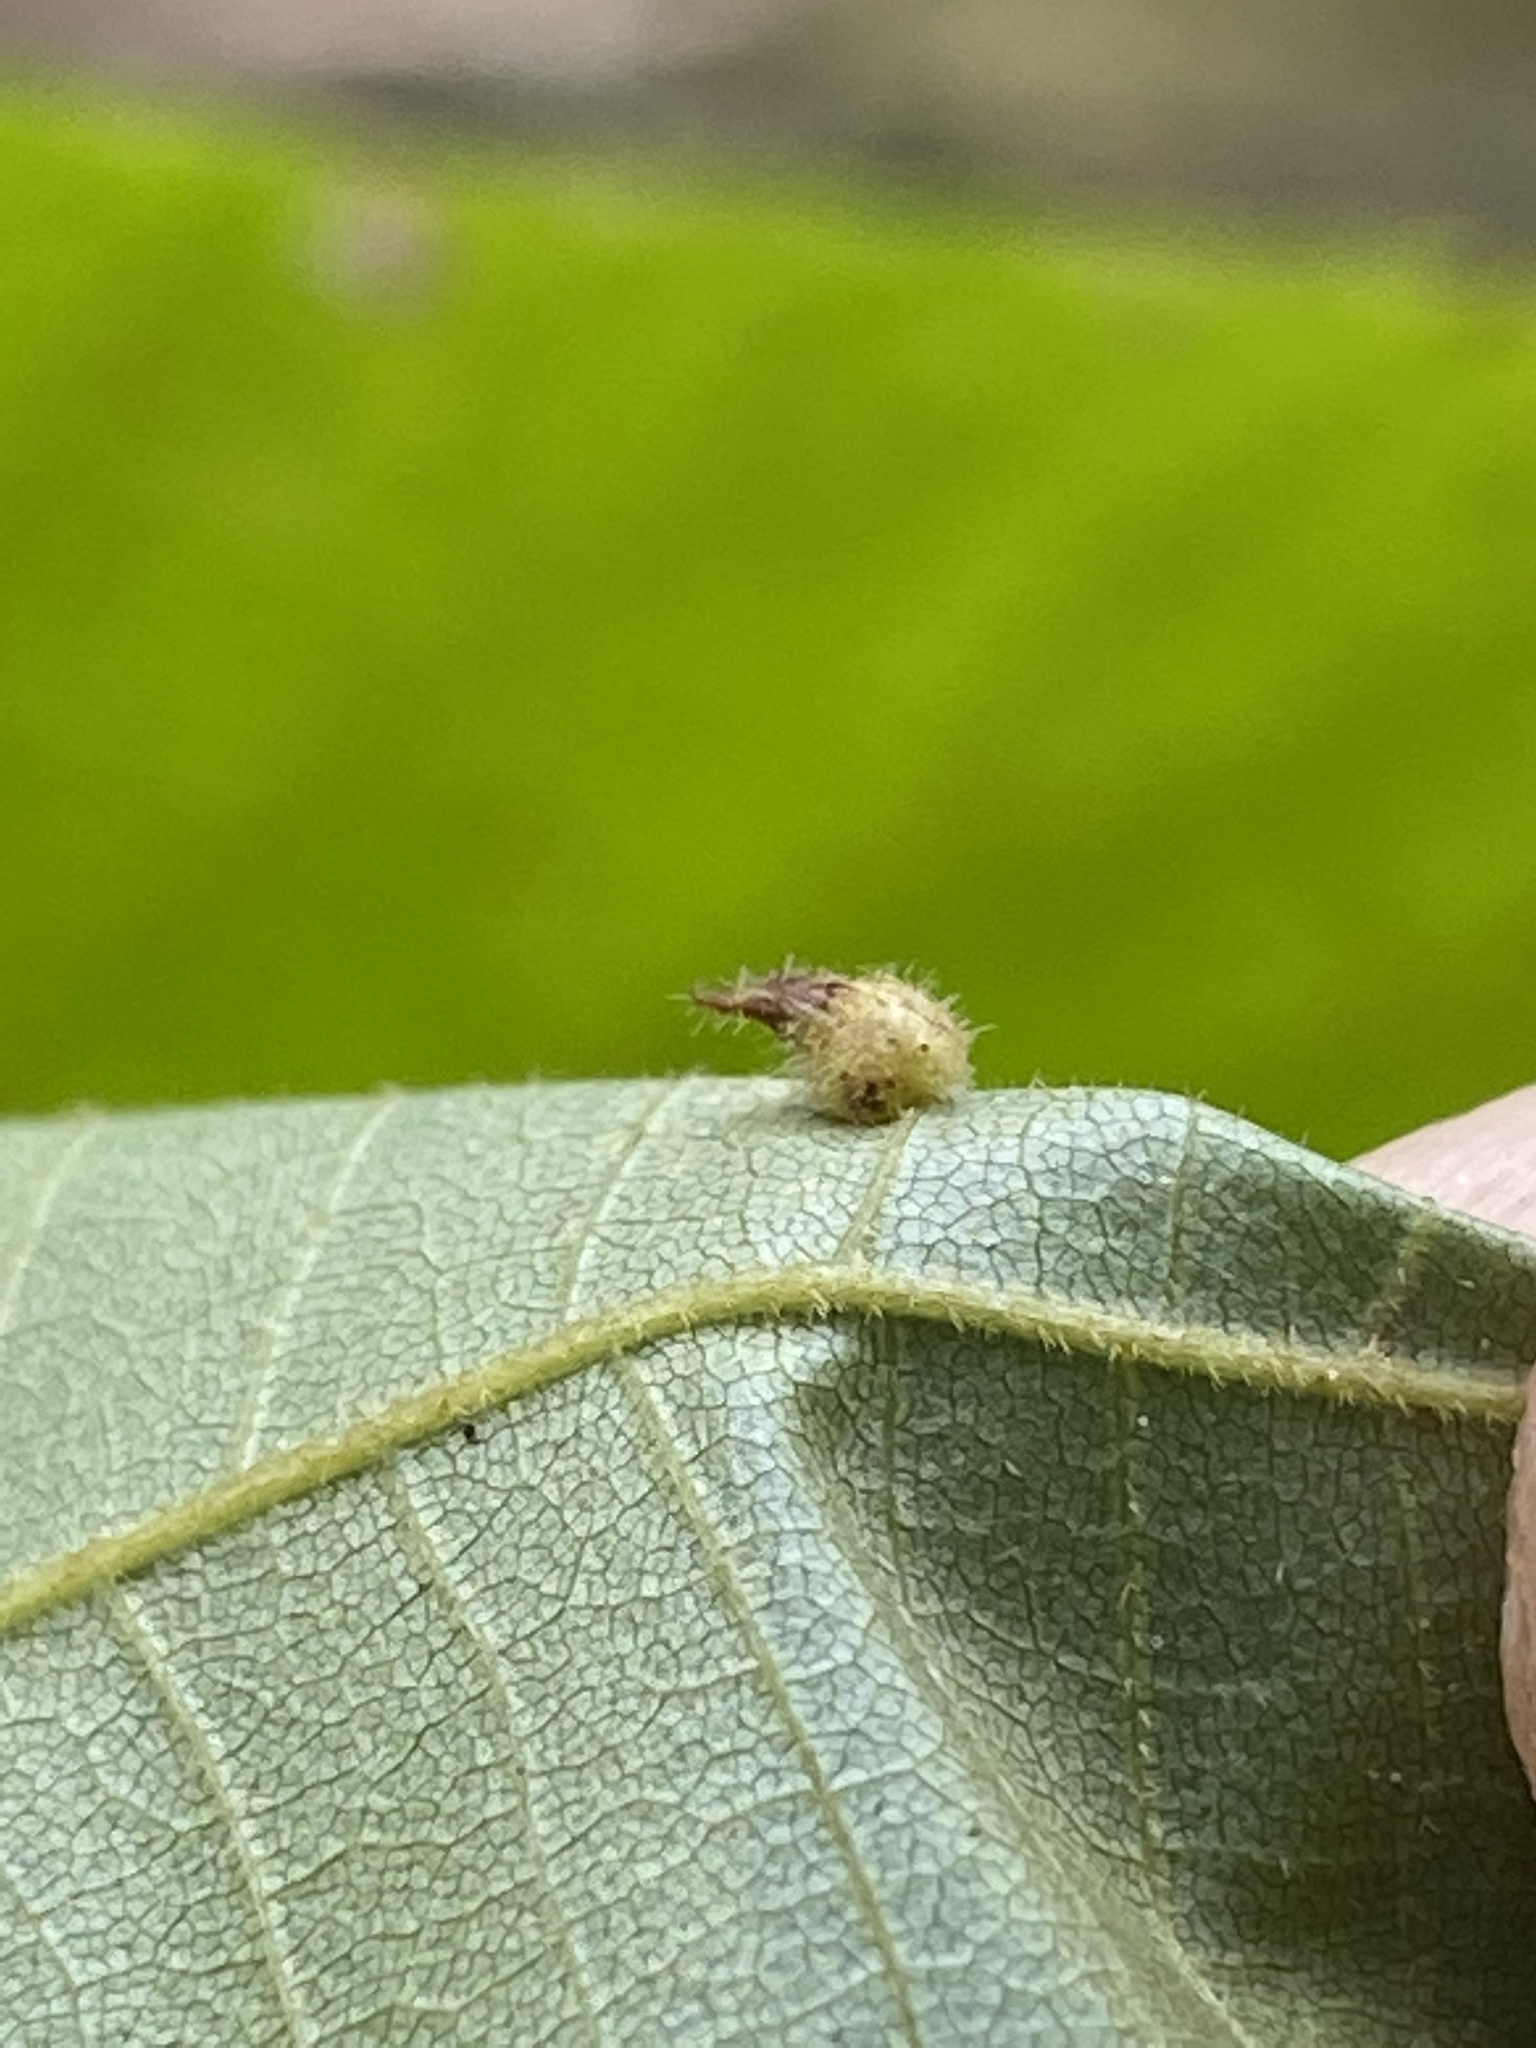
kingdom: Animalia
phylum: Arthropoda
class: Insecta
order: Diptera
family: Cecidomyiidae
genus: Caryomyia
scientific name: Caryomyia cucurbitata
